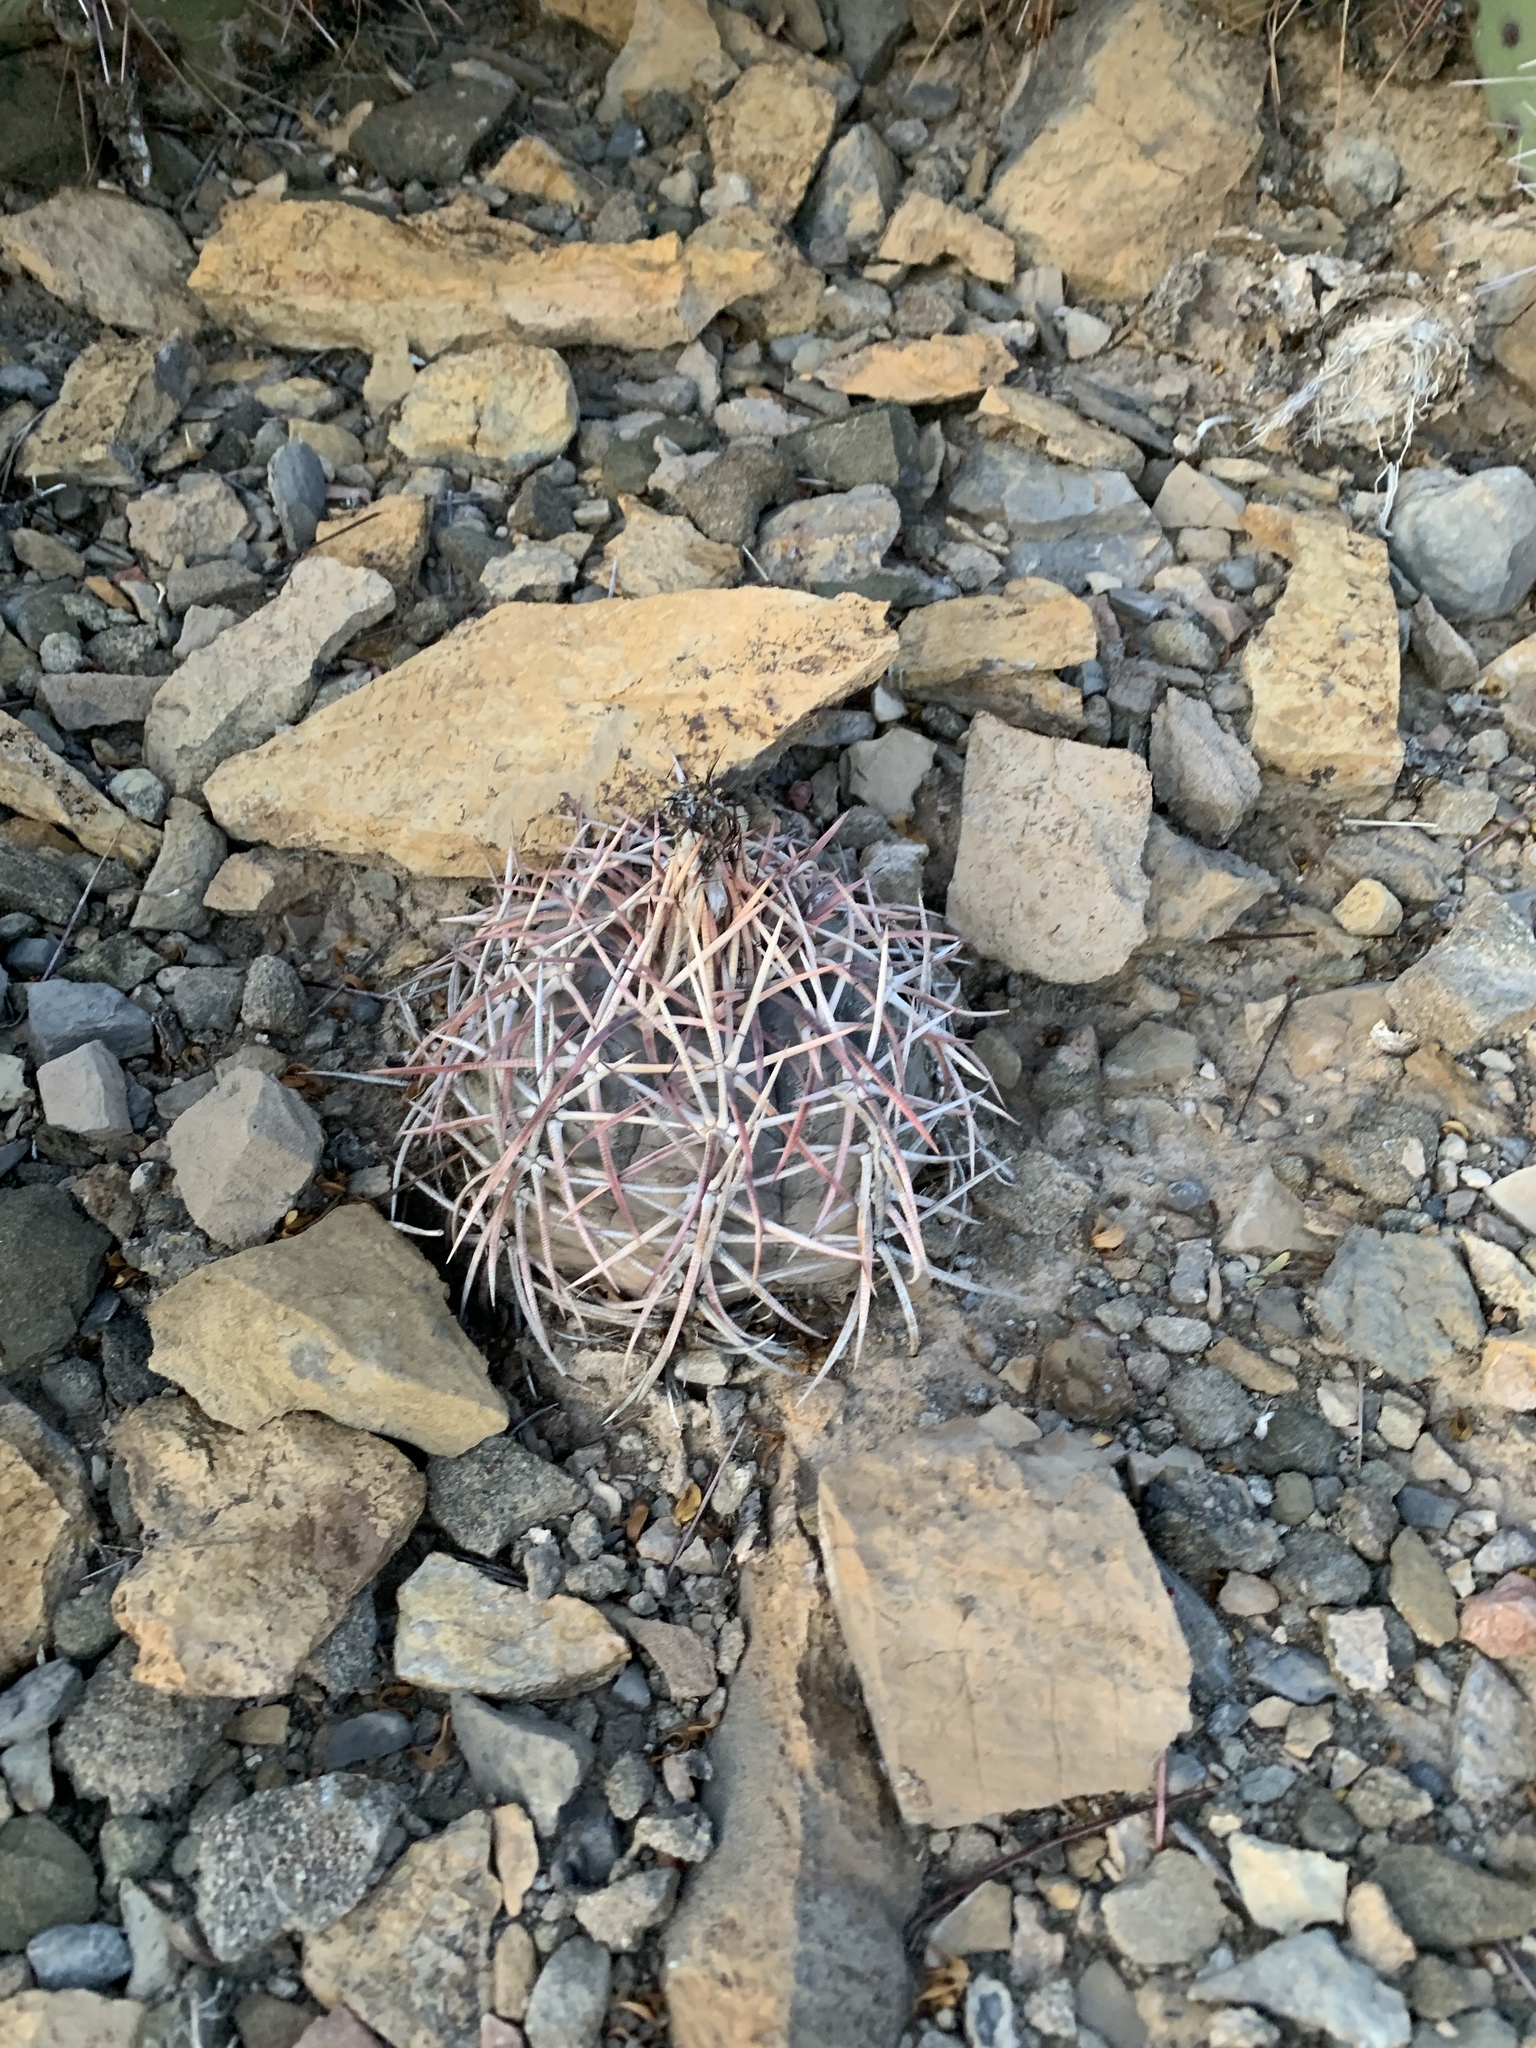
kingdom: Plantae
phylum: Tracheophyta
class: Magnoliopsida
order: Caryophyllales
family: Cactaceae
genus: Echinocactus
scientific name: Echinocactus horizonthalonius
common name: Devilshead
